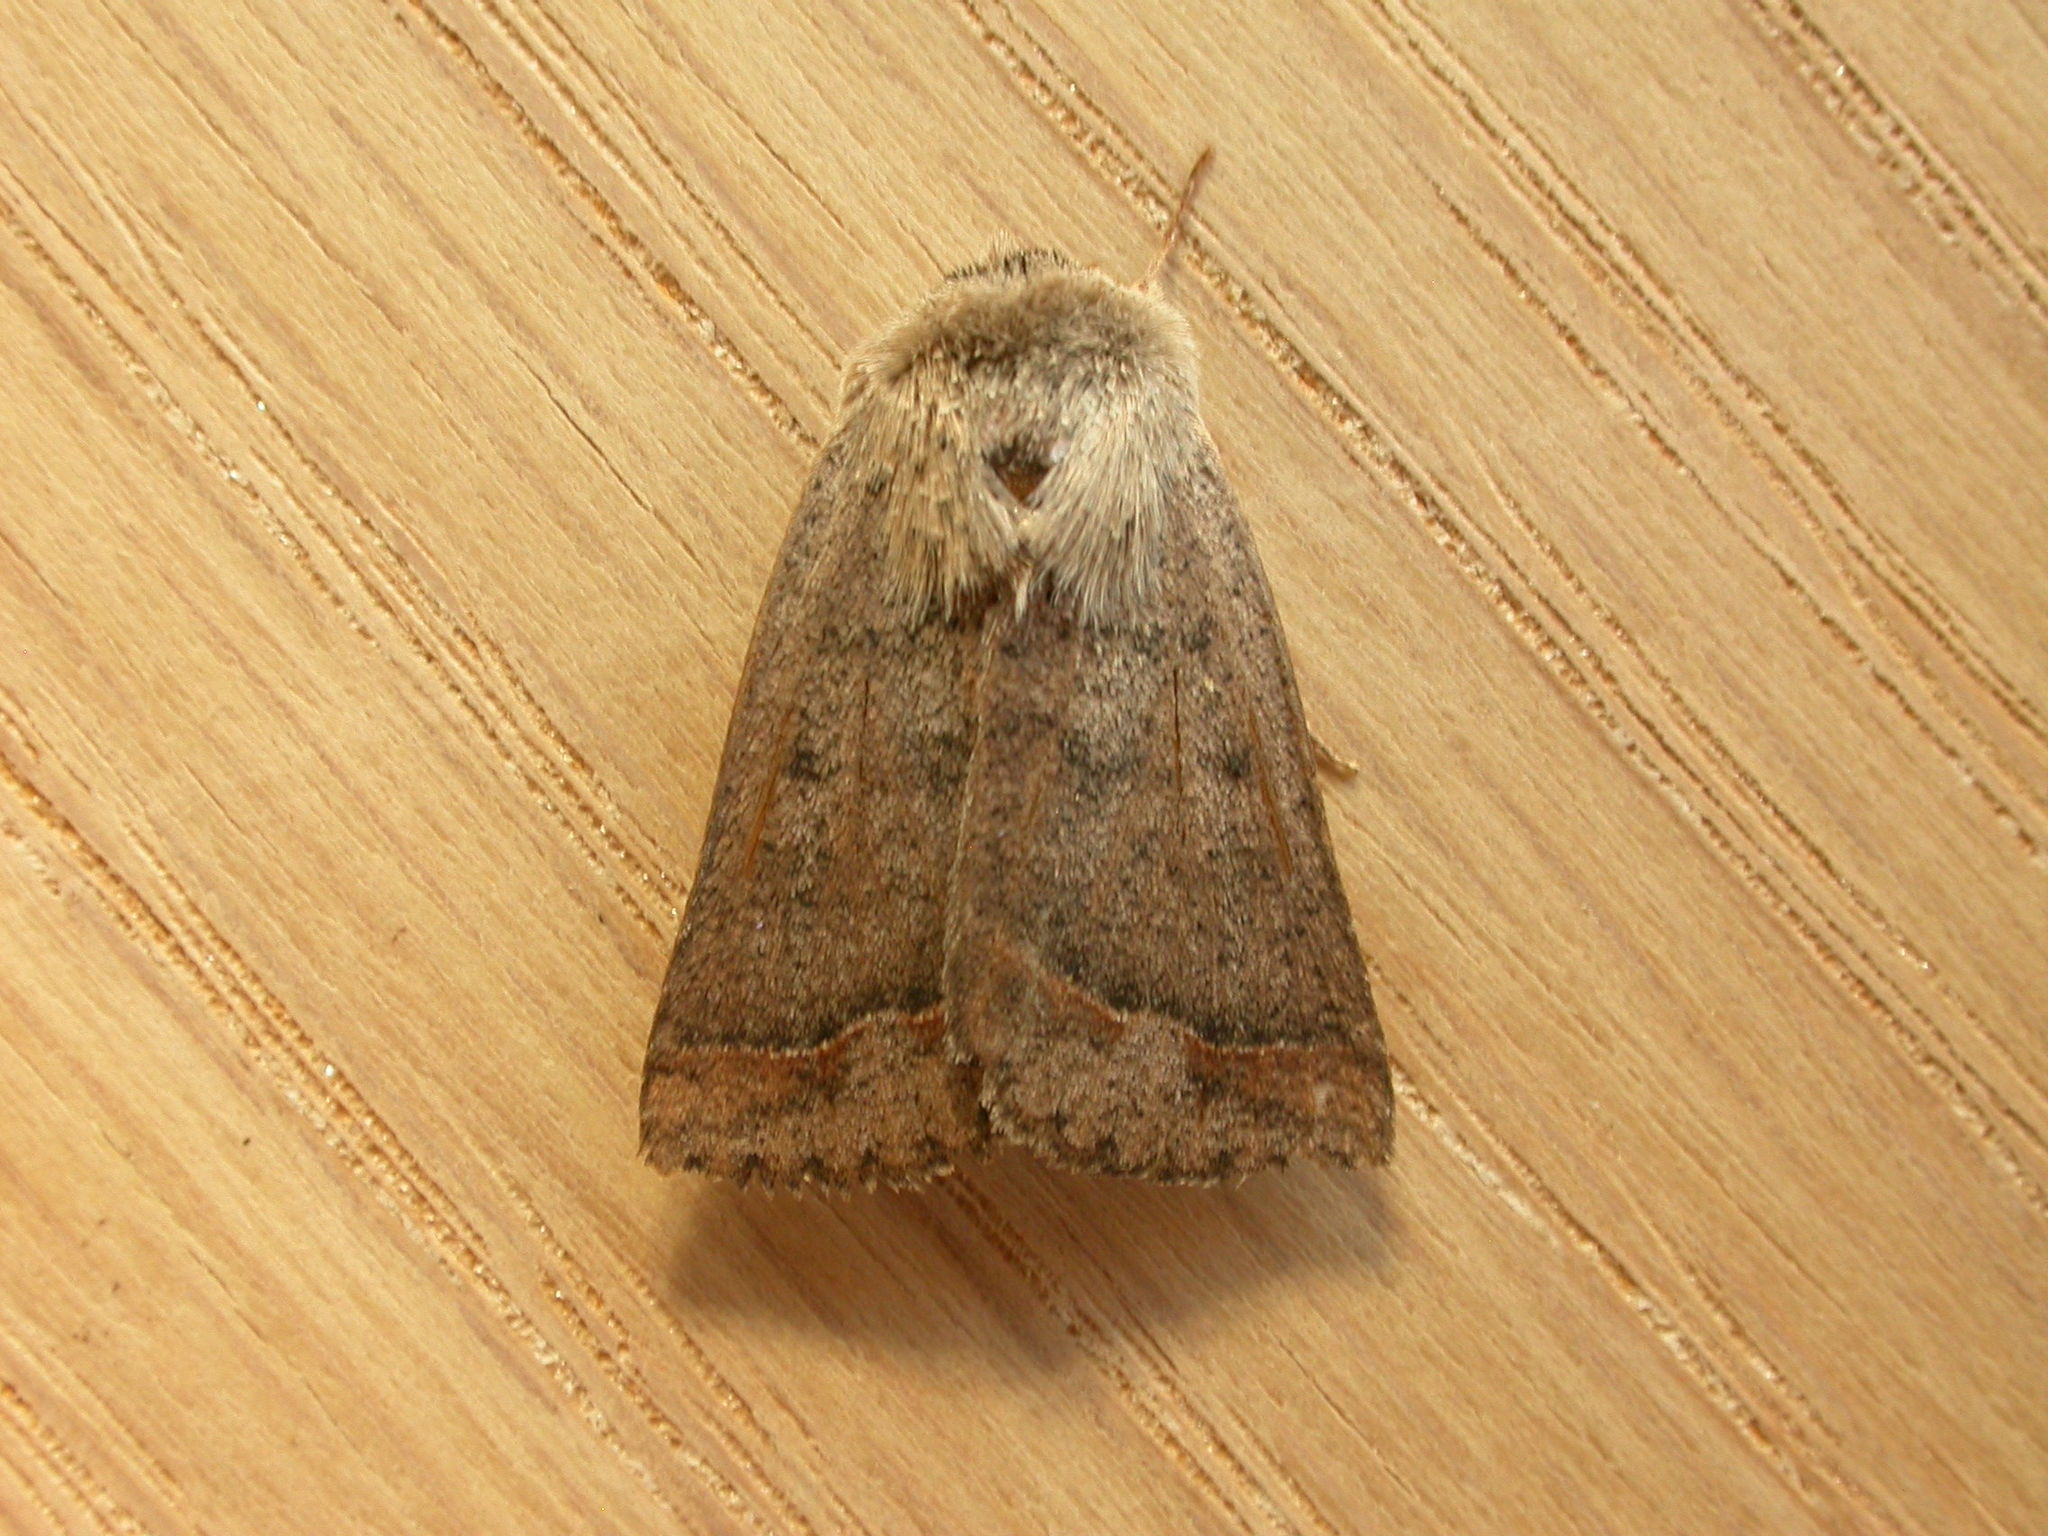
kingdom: Animalia
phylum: Arthropoda
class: Insecta
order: Lepidoptera
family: Erebidae
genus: Pantydia
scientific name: Pantydia sparsa
